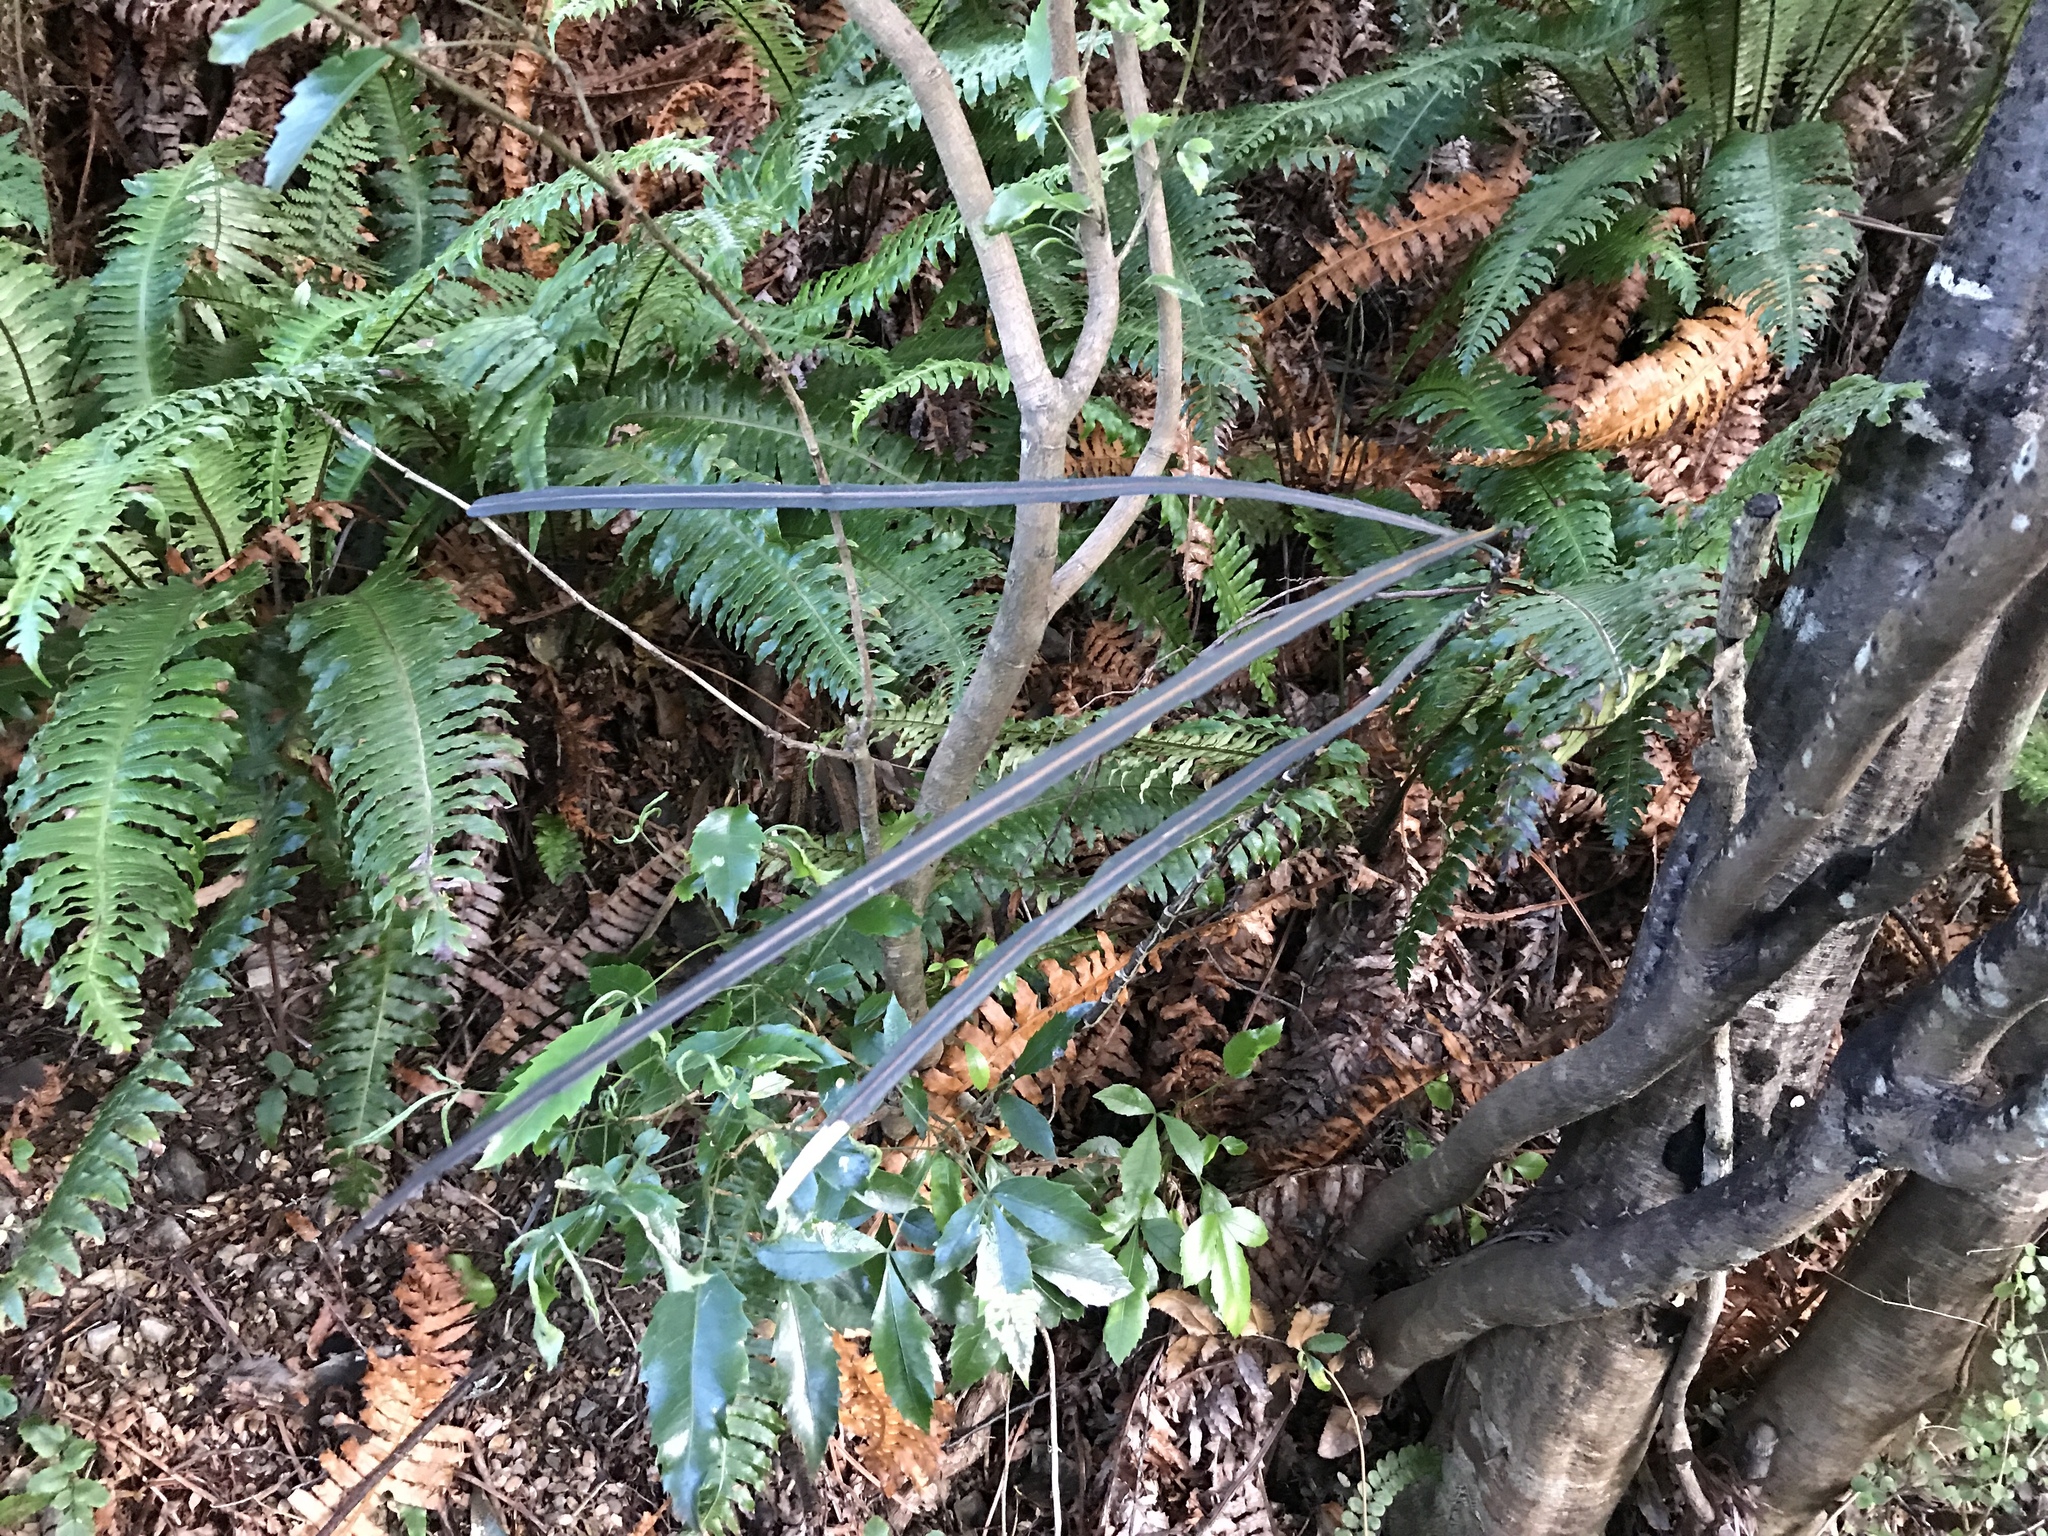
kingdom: Plantae
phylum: Tracheophyta
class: Magnoliopsida
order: Apiales
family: Araliaceae
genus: Pseudopanax
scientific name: Pseudopanax crassifolius
